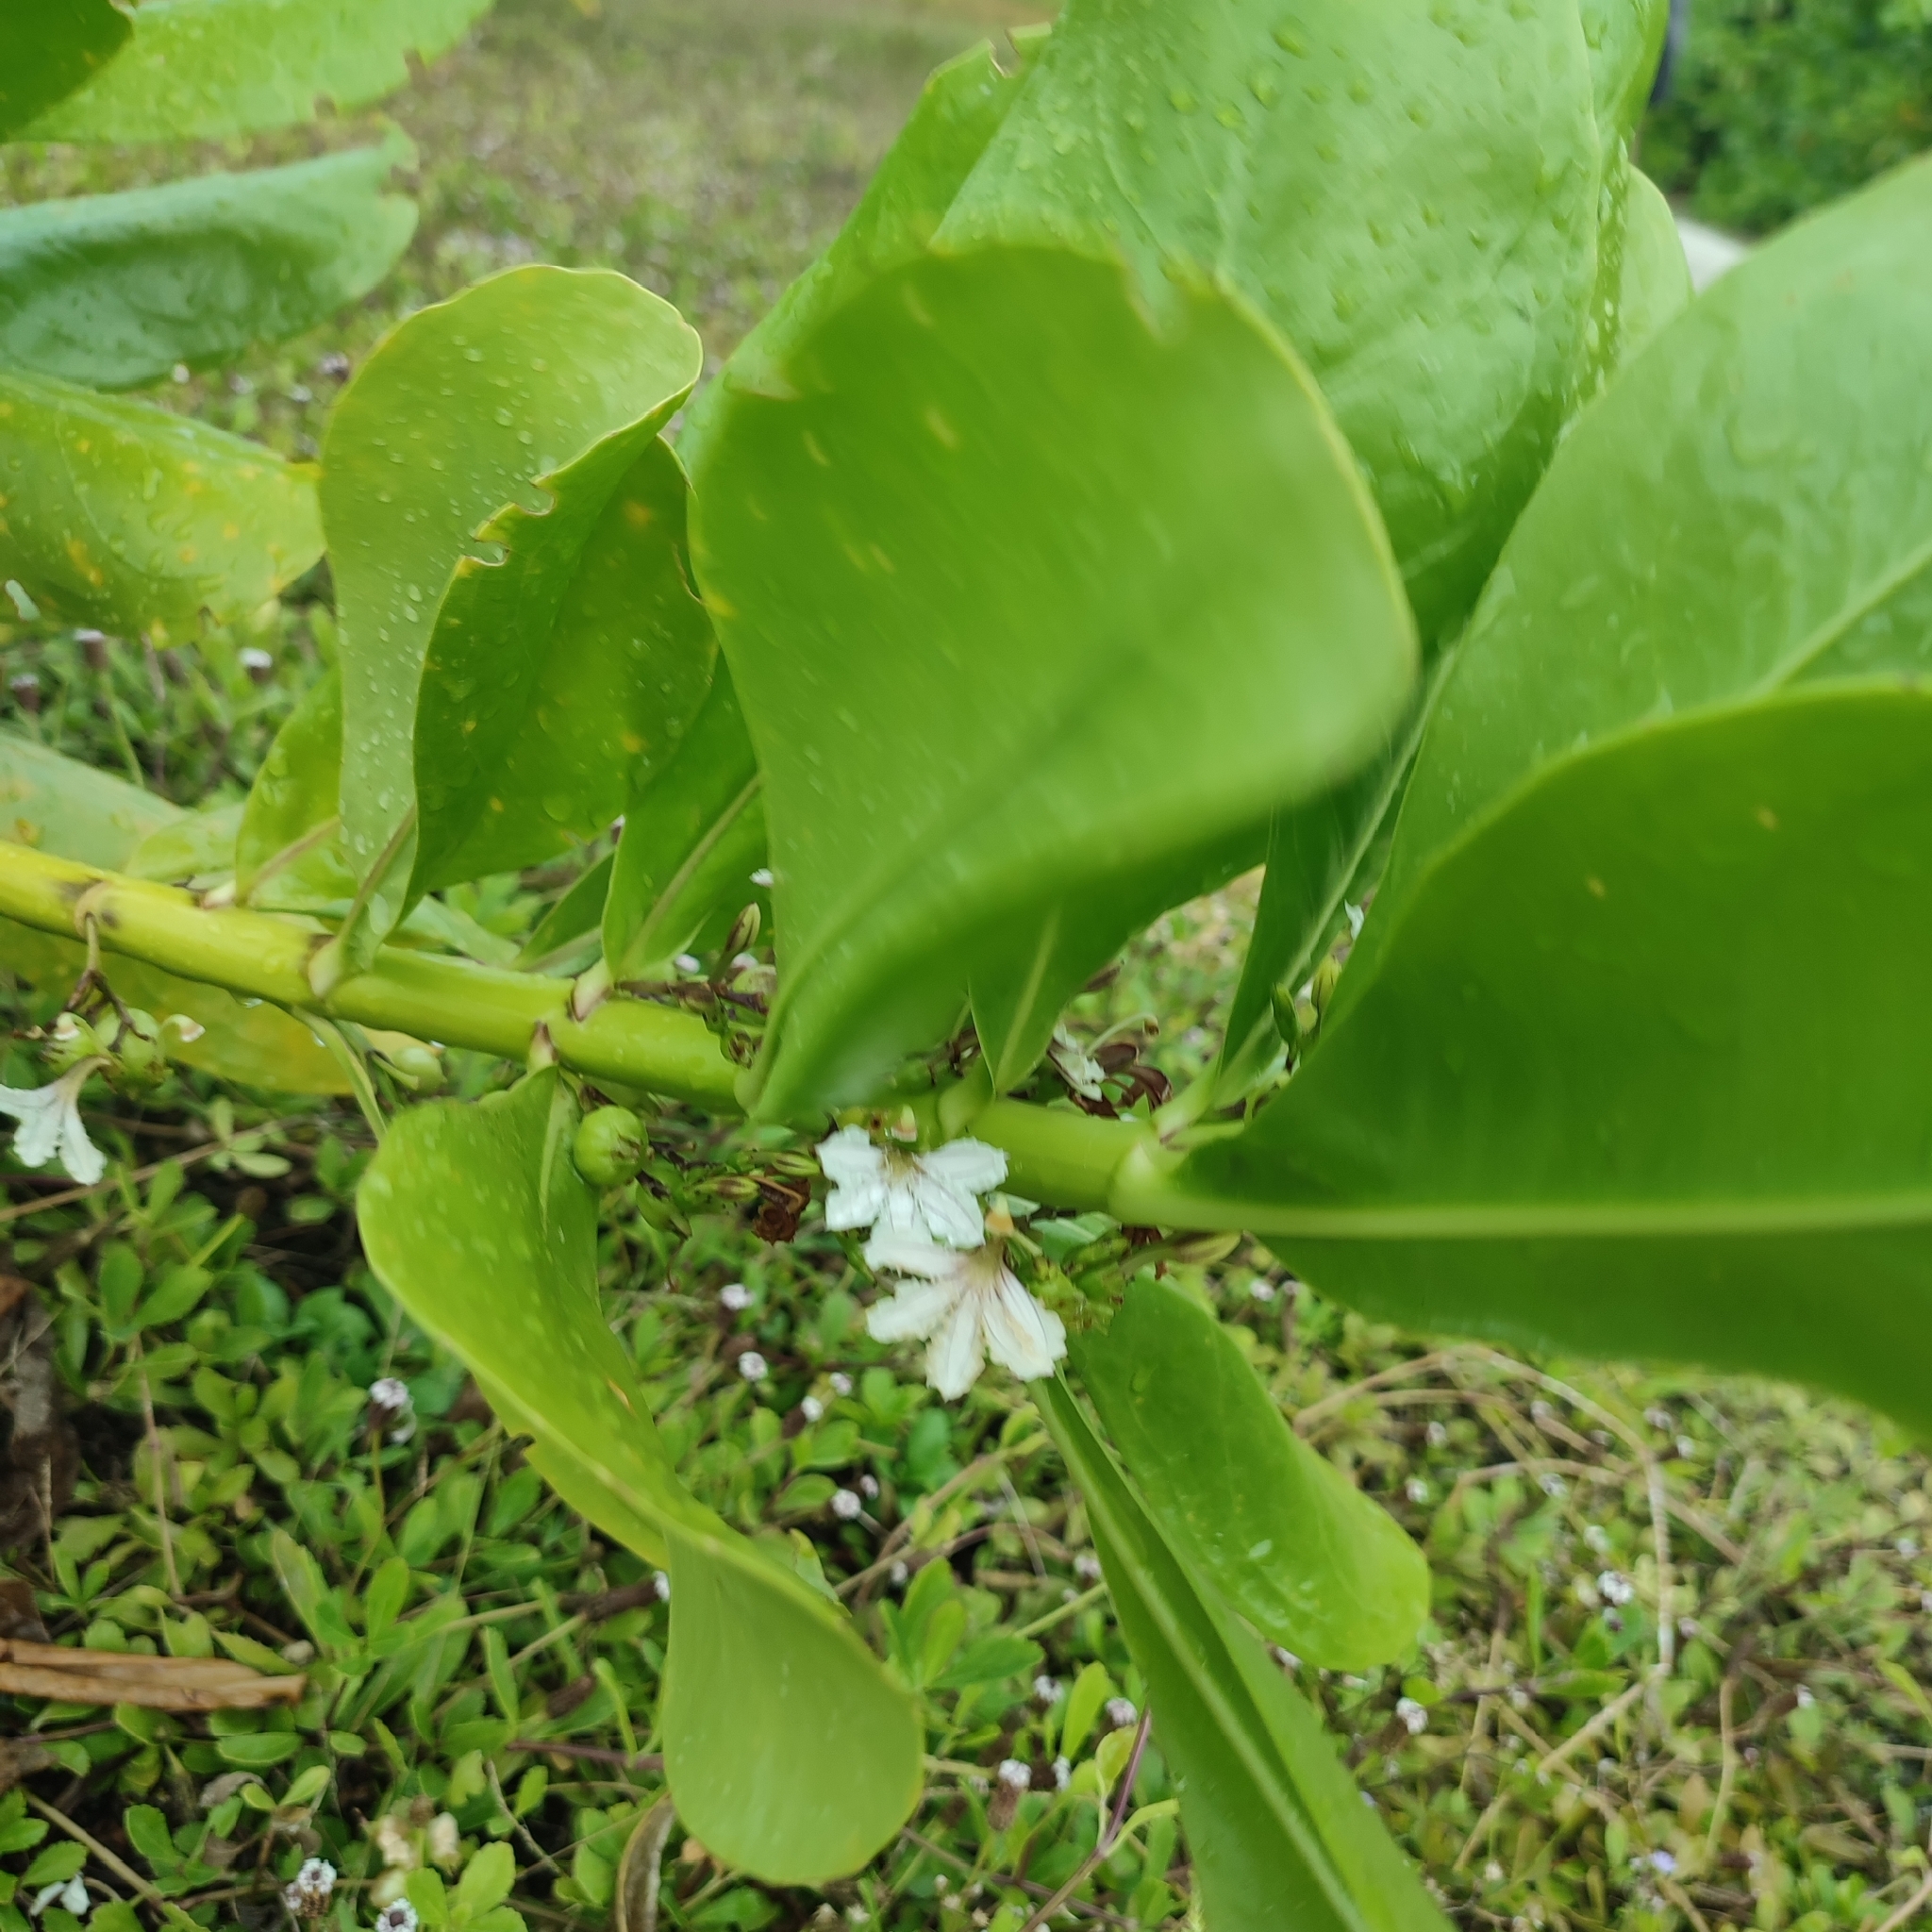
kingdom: Plantae
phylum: Tracheophyta
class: Magnoliopsida
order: Asterales
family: Goodeniaceae
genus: Scaevola
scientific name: Scaevola taccada
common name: Sea lettucetree
